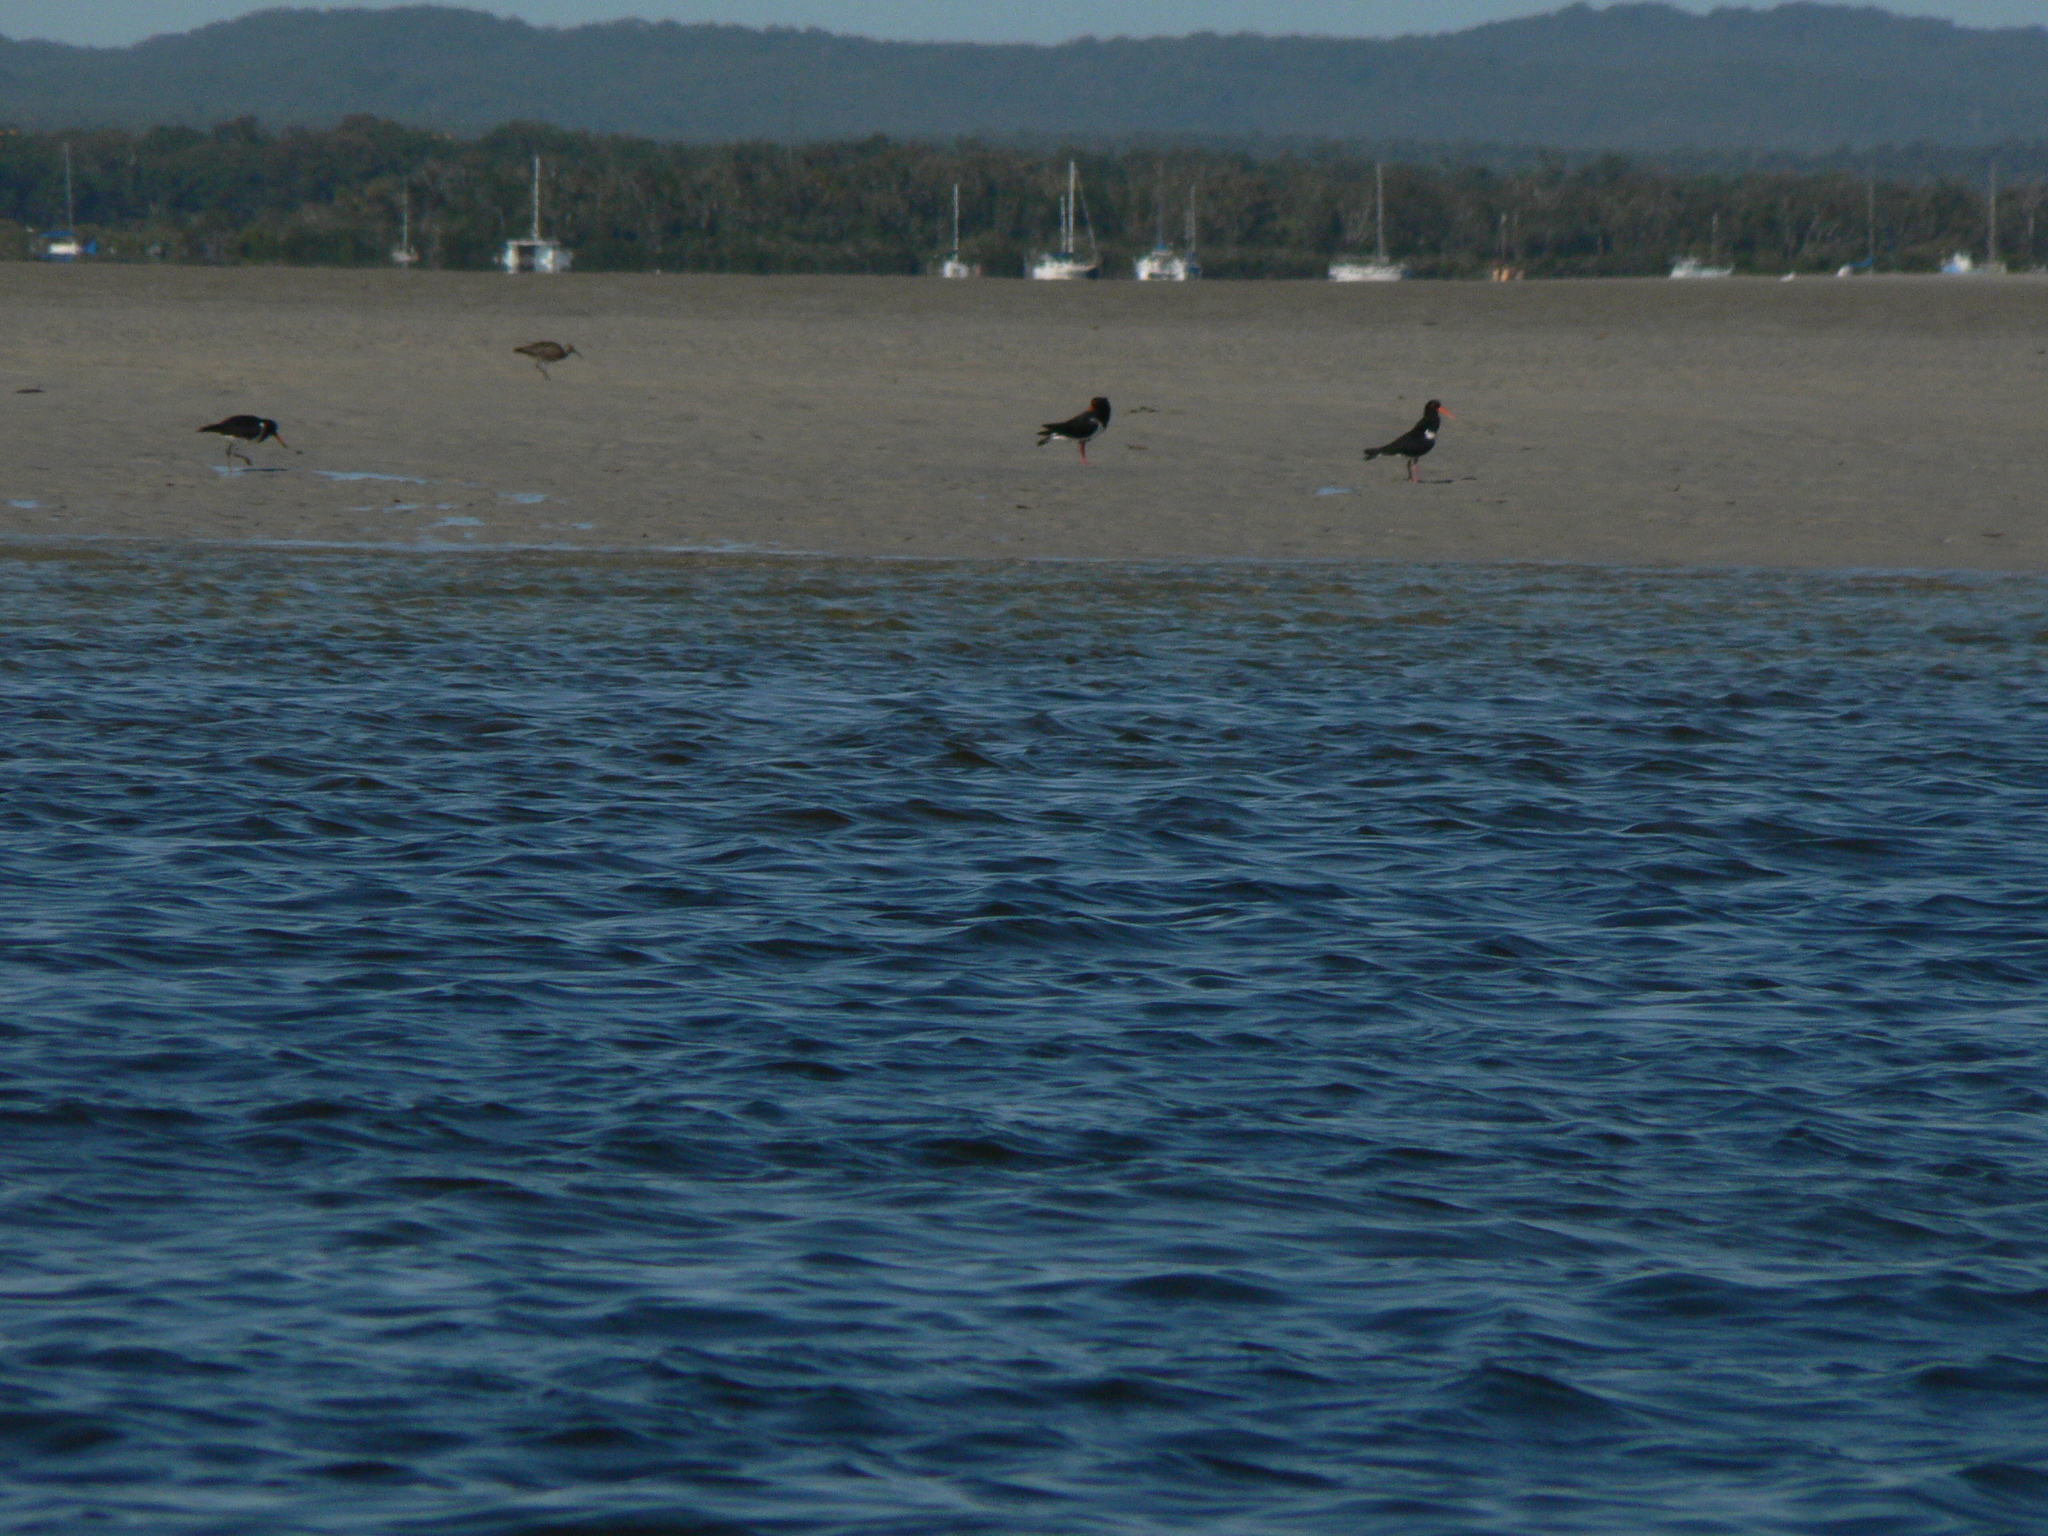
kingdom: Animalia
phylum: Chordata
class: Aves
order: Charadriiformes
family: Haematopodidae
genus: Haematopus
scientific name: Haematopus longirostris
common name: Pied oystercatcher
